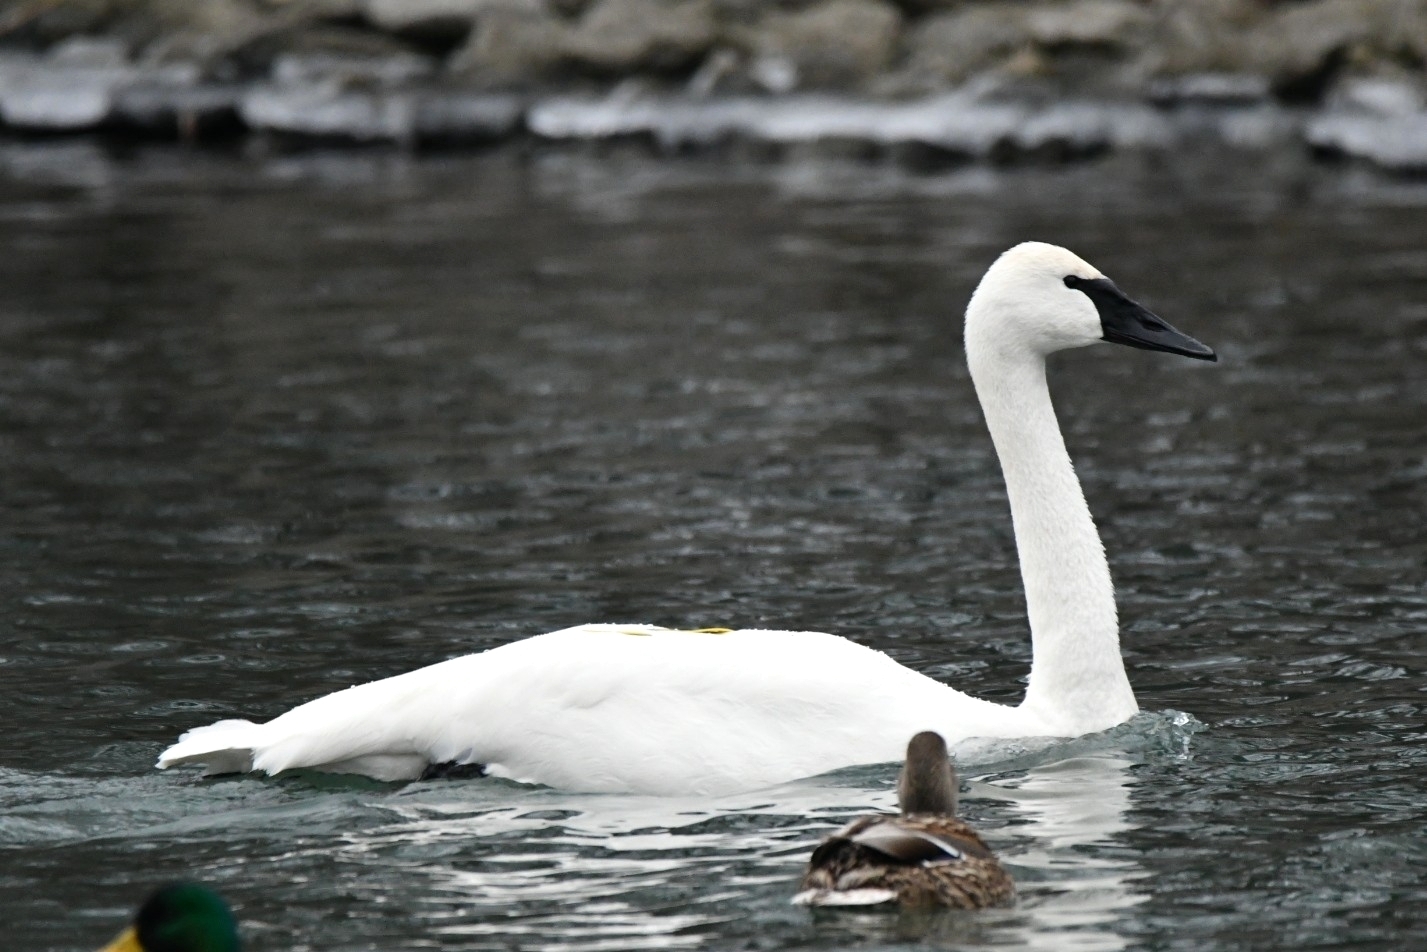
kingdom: Animalia
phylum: Chordata
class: Aves
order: Anseriformes
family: Anatidae
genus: Cygnus
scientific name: Cygnus buccinator
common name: Trumpeter swan
